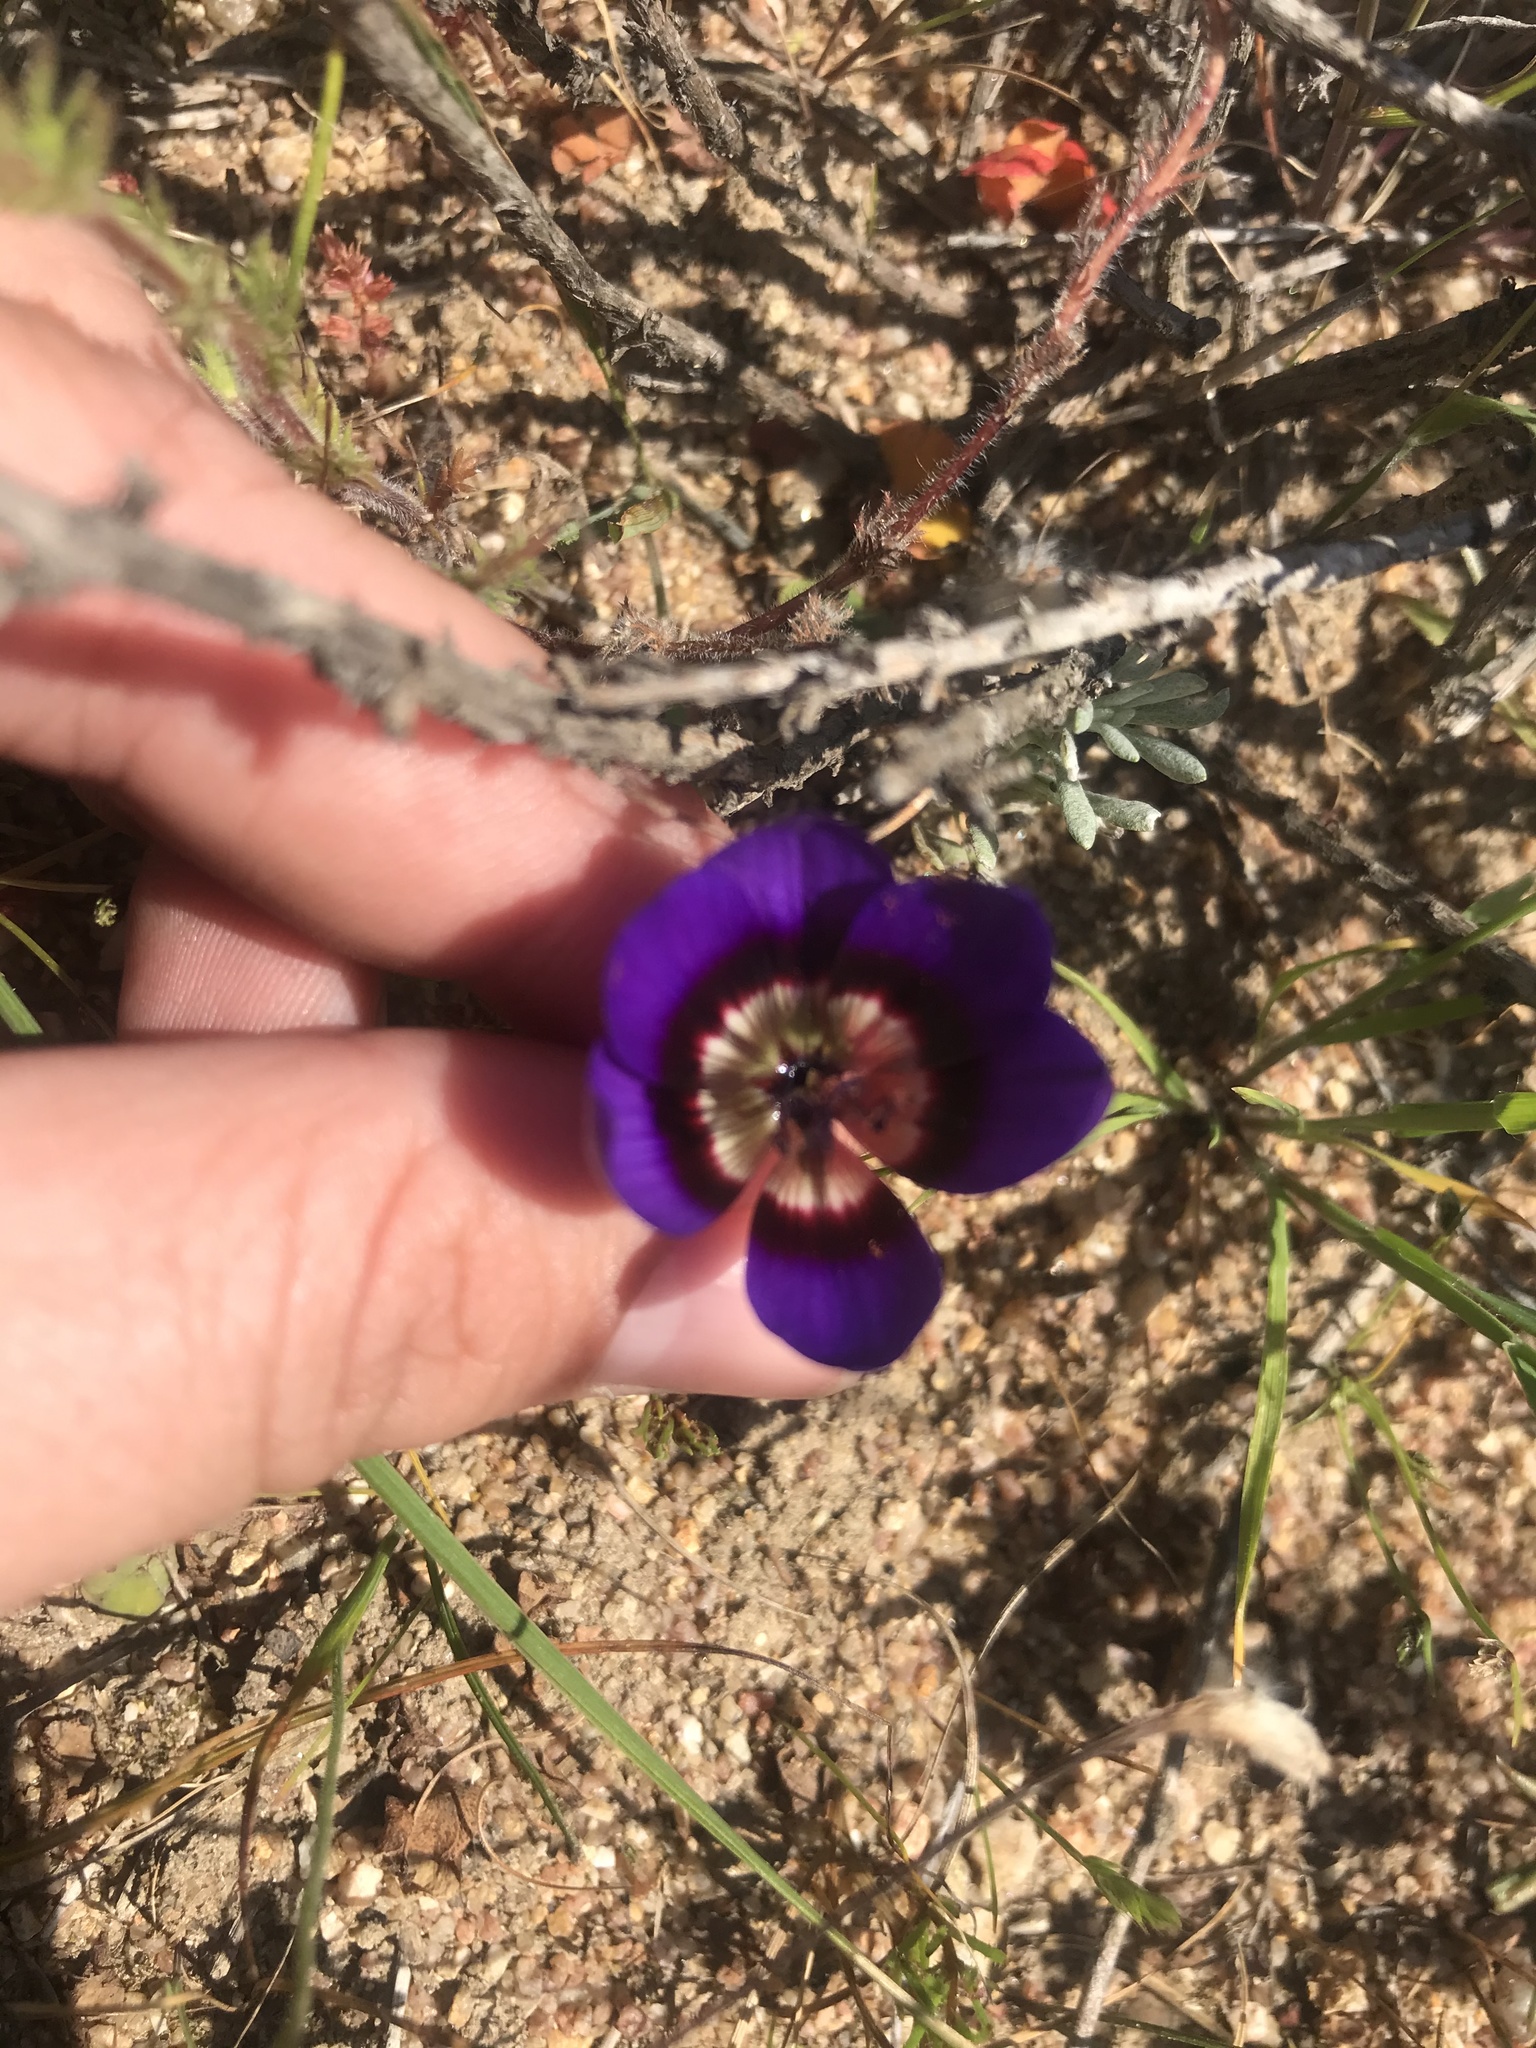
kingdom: Plantae
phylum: Tracheophyta
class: Liliopsida
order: Asparagales
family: Iridaceae
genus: Geissorhiza
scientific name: Geissorhiza monanthos
